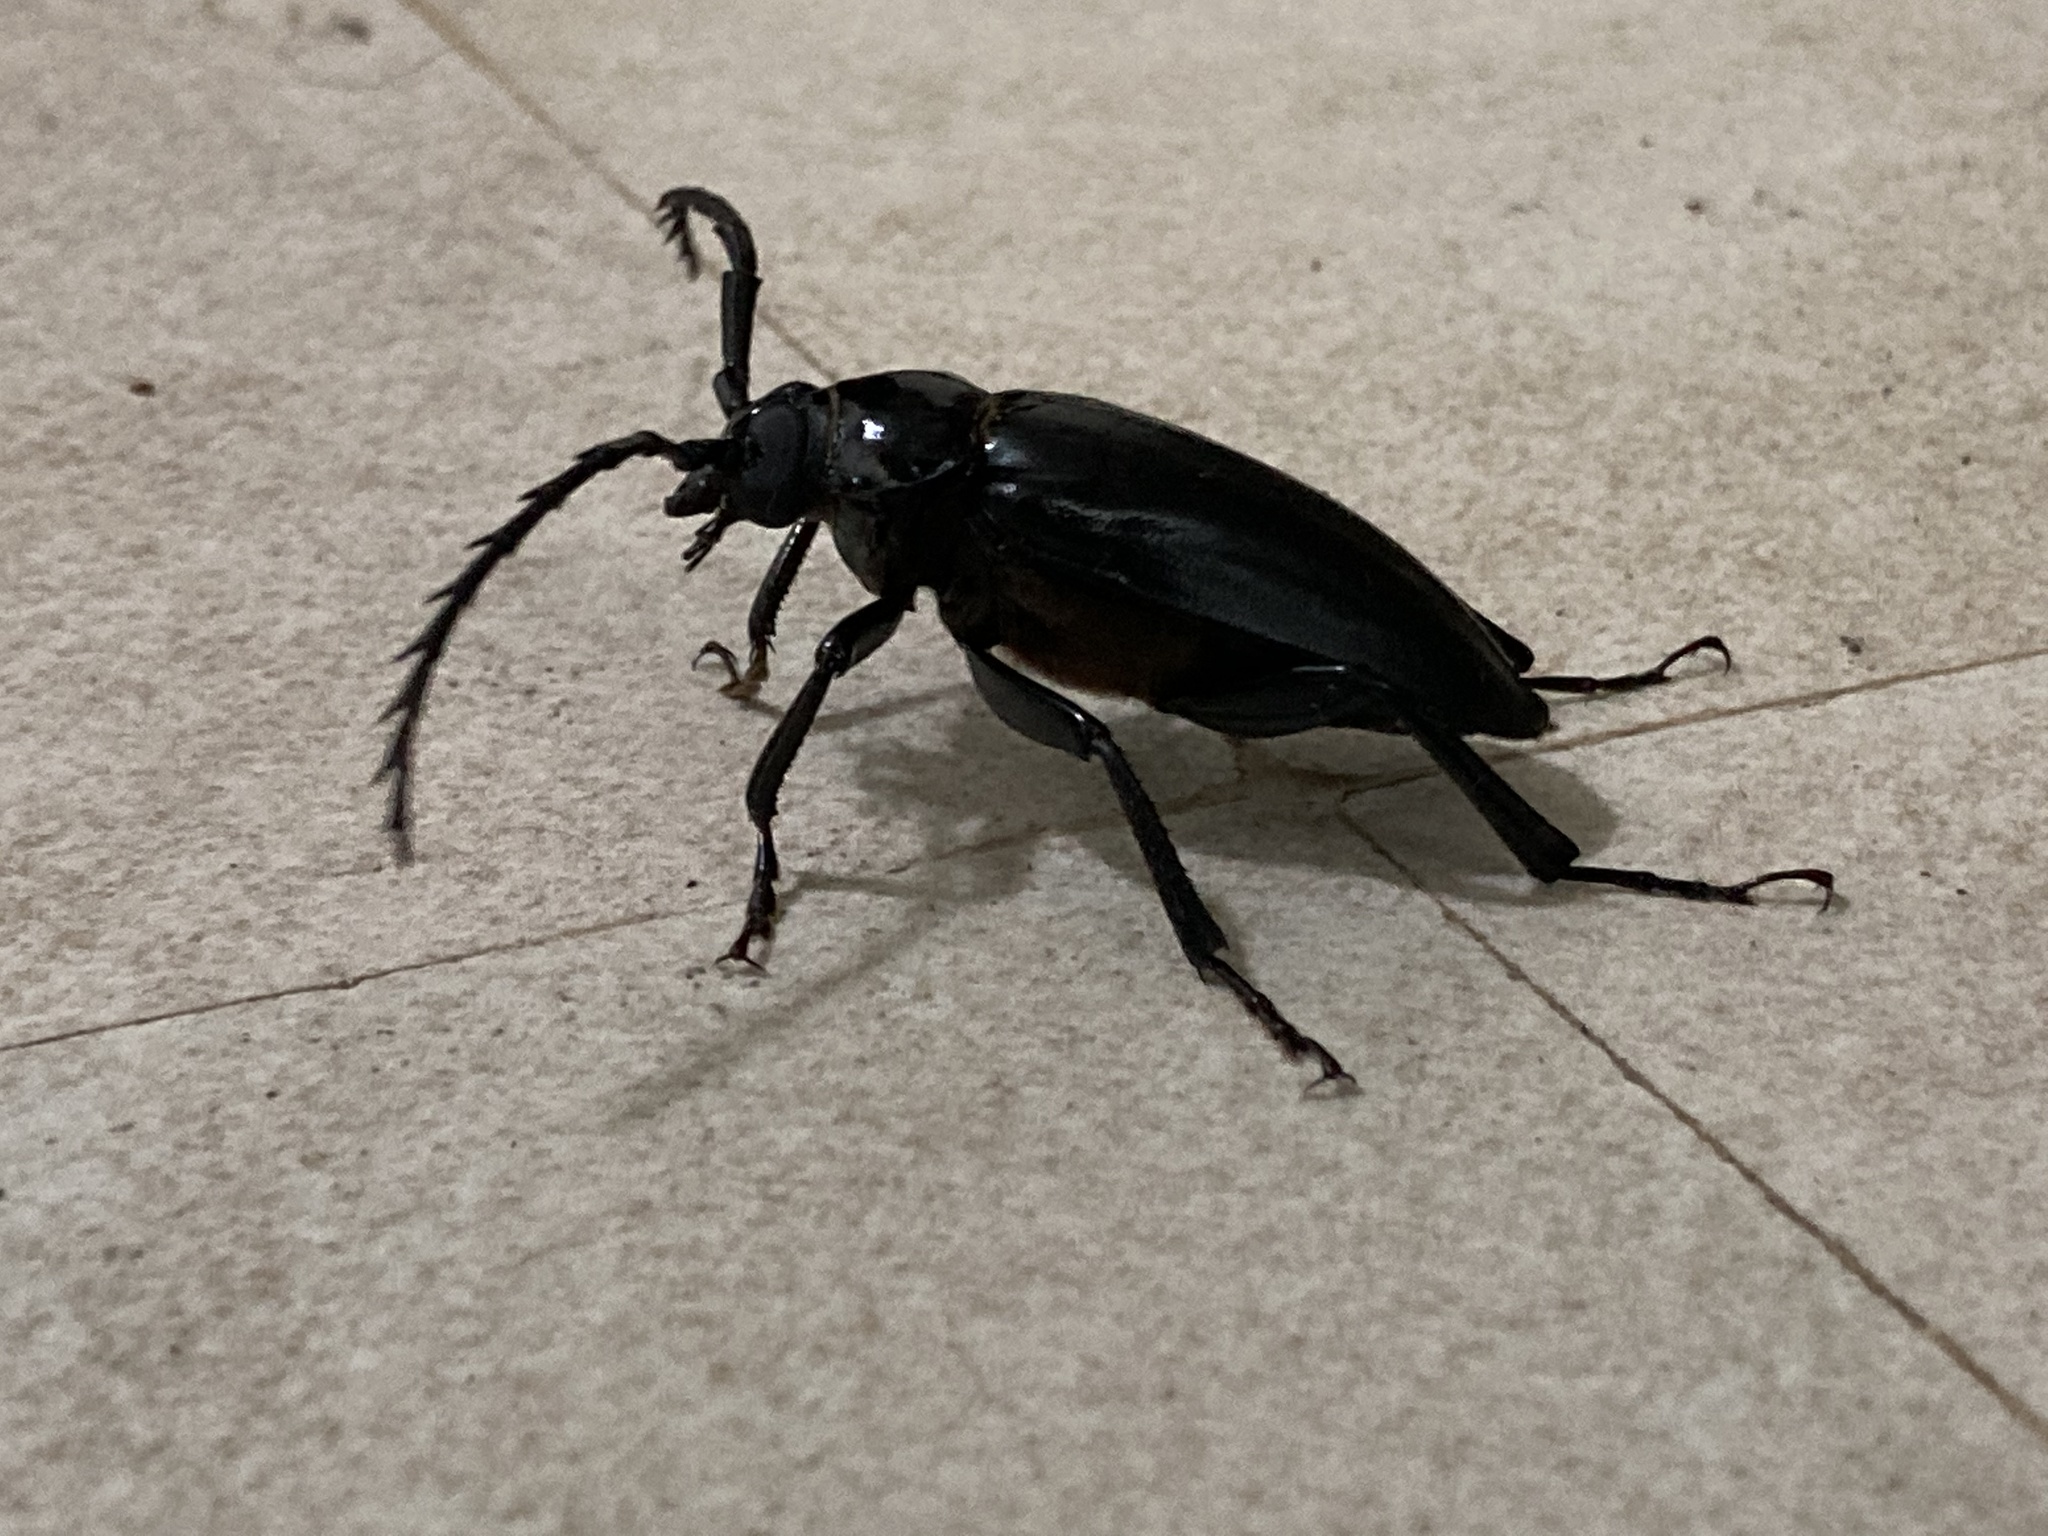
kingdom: Animalia
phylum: Arthropoda
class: Insecta
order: Coleoptera
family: Cerambycidae
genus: Prionomma
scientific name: Prionomma atratum
